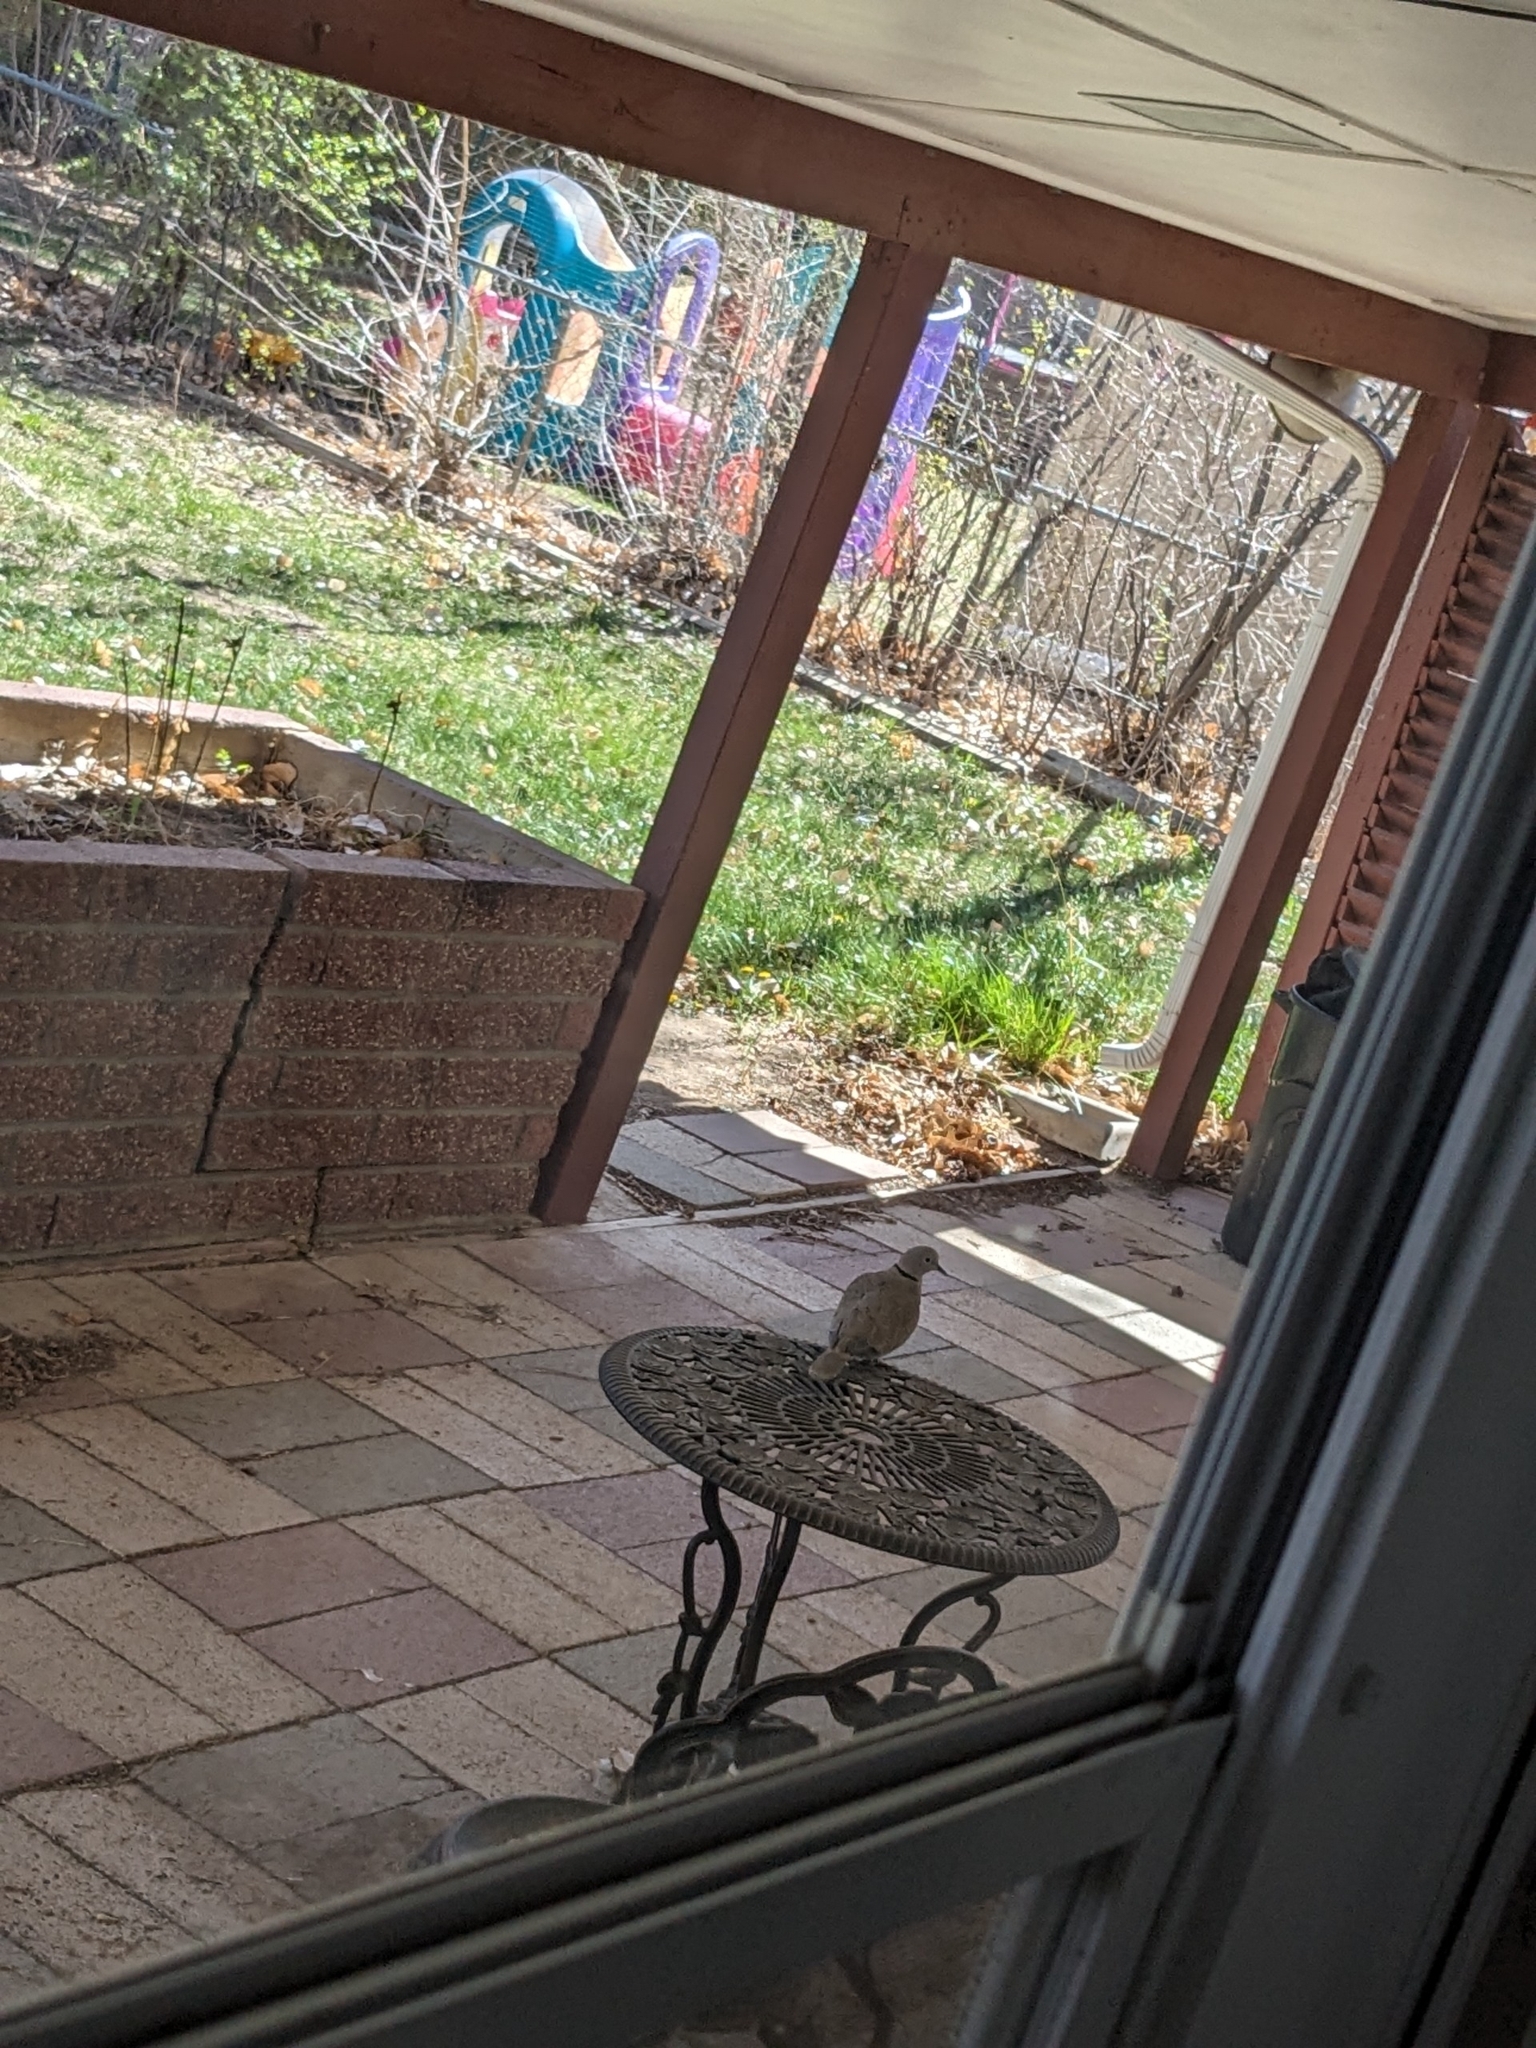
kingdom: Animalia
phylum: Chordata
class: Aves
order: Columbiformes
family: Columbidae
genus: Streptopelia
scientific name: Streptopelia decaocto
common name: Eurasian collared dove
